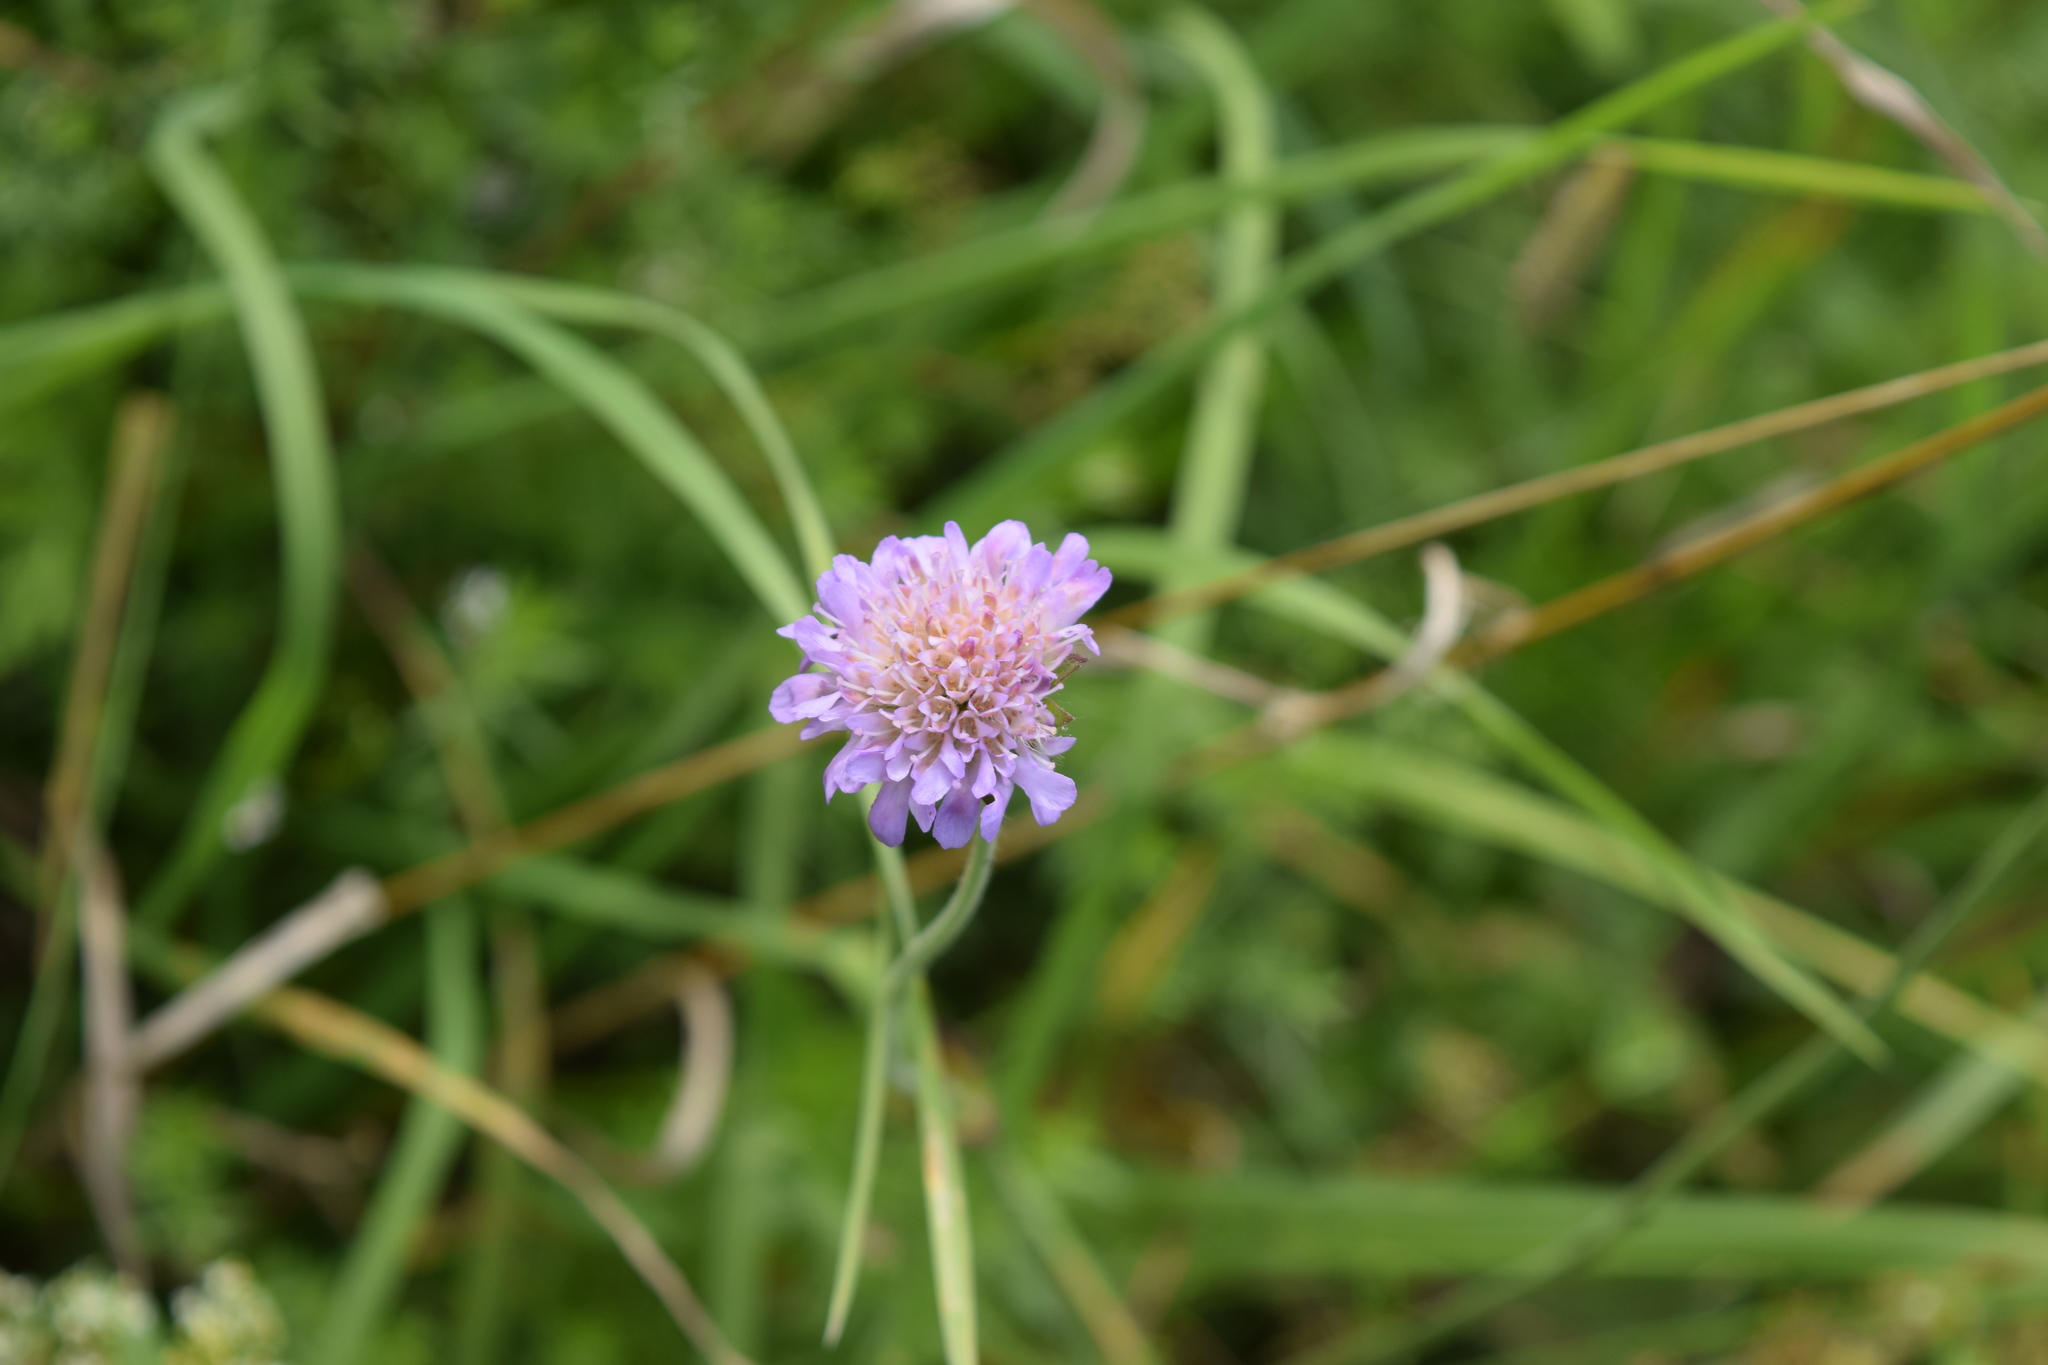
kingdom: Plantae
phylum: Tracheophyta
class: Magnoliopsida
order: Dipsacales
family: Caprifoliaceae
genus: Knautia
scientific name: Knautia arvensis
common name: Field scabiosa
